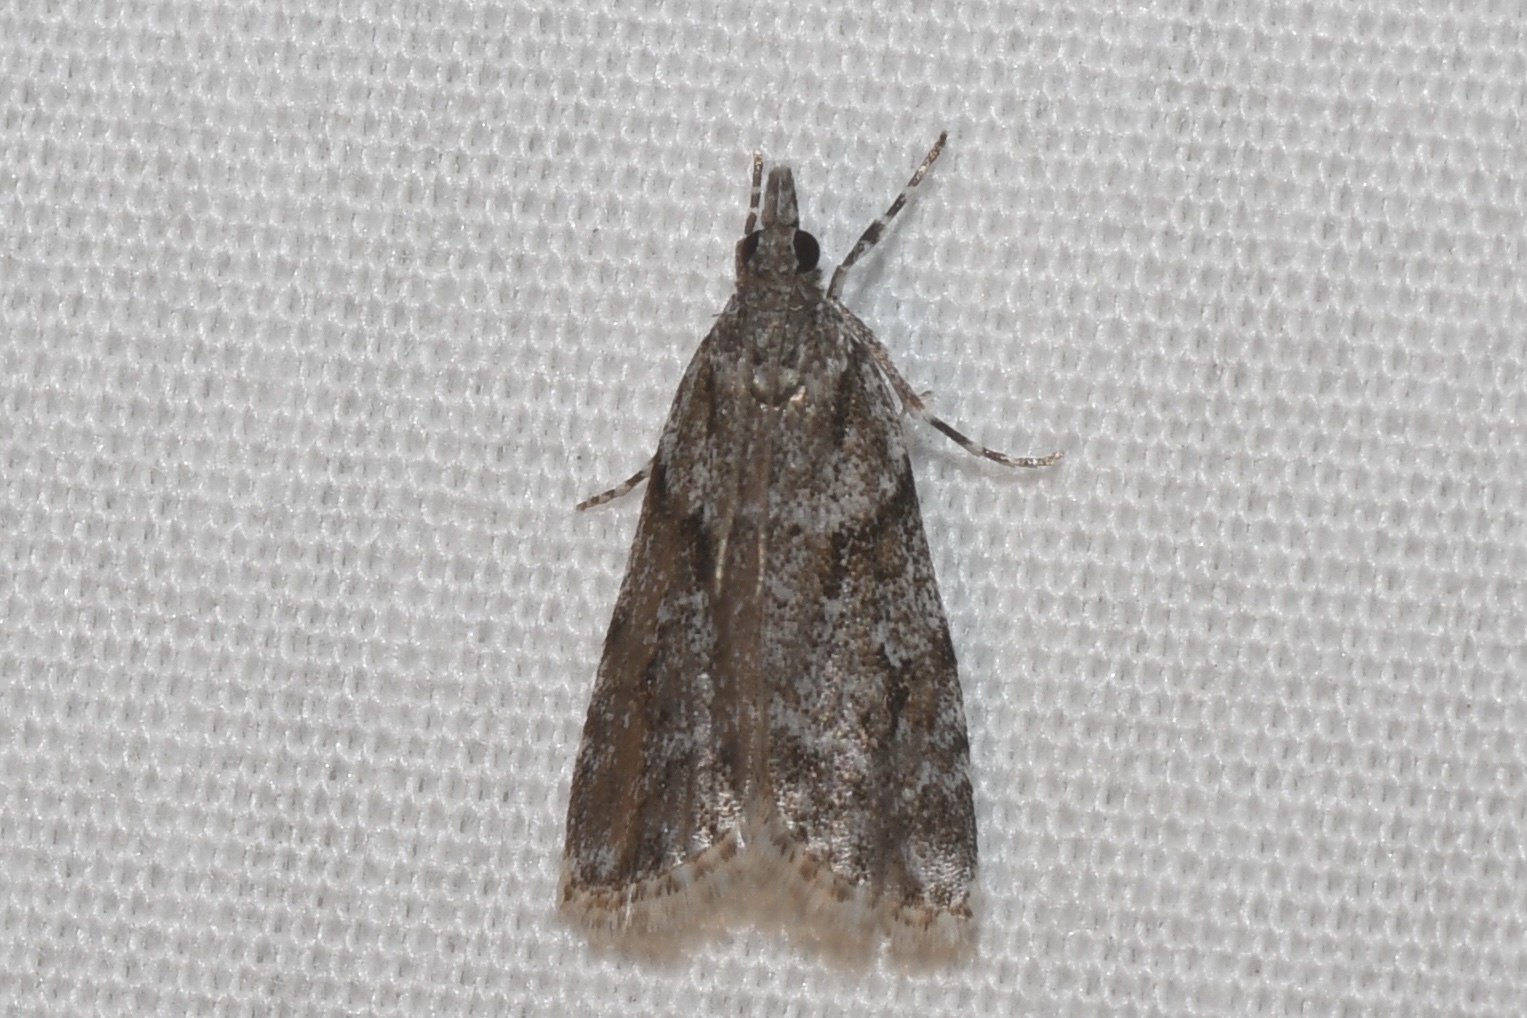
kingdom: Animalia
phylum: Arthropoda
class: Insecta
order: Lepidoptera
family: Crambidae
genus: Scoparia
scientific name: Scoparia biplagialis
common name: Double-striped scoparia moth
